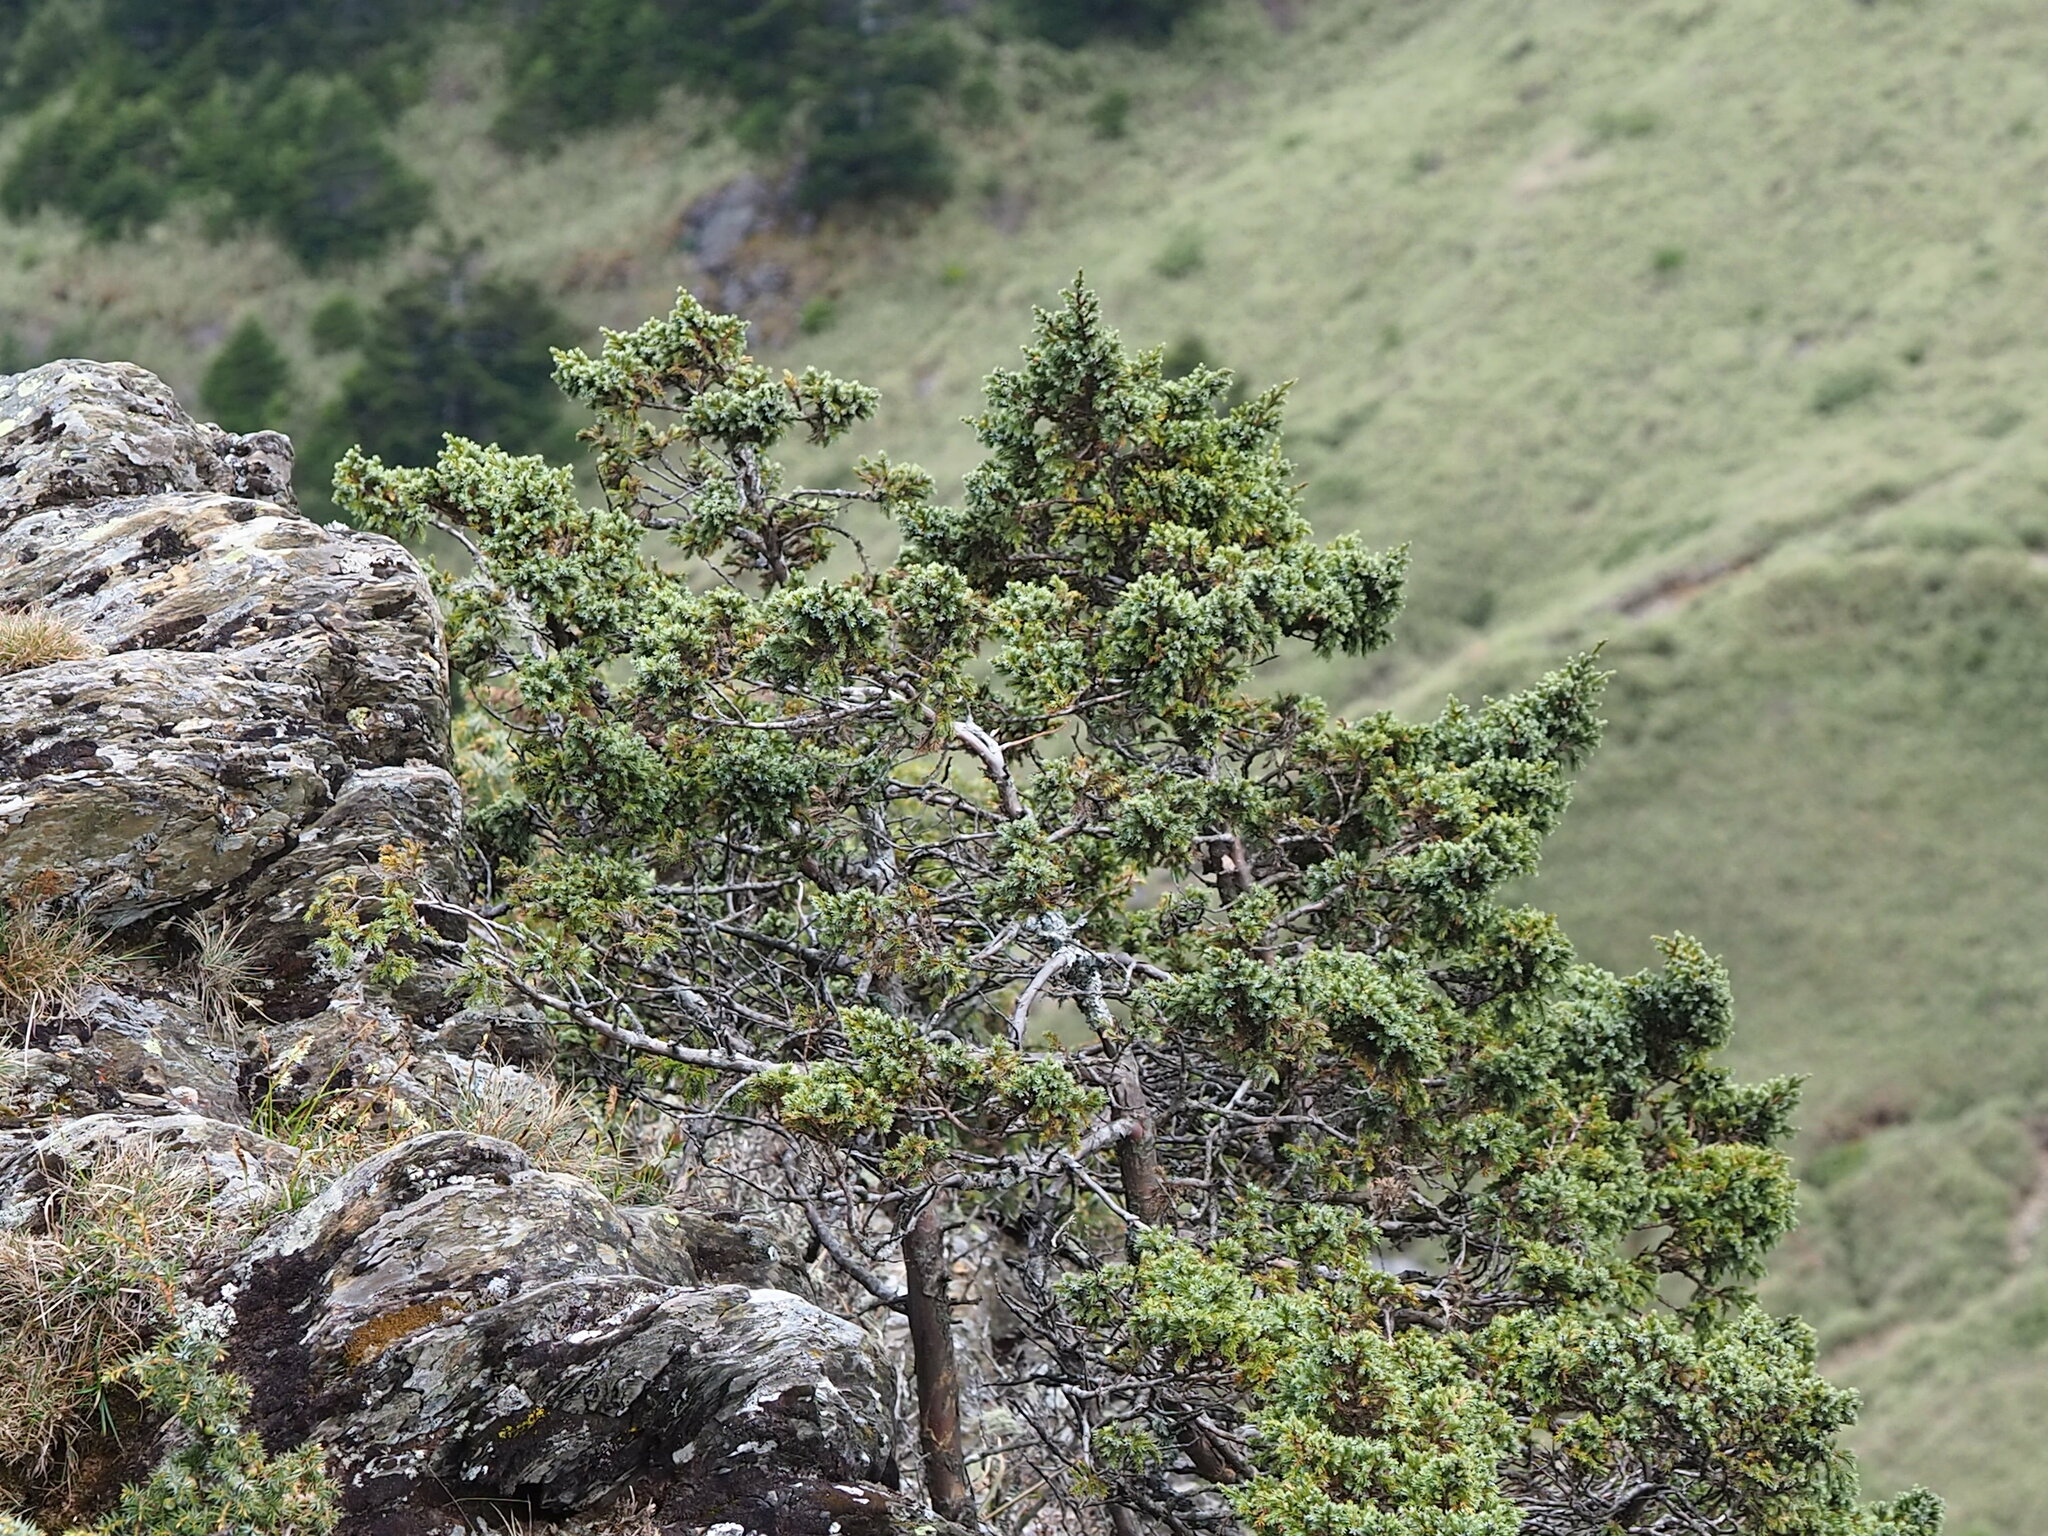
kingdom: Plantae
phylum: Tracheophyta
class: Pinopsida
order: Pinales
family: Cupressaceae
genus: Juniperus
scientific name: Juniperus squamata
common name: Flaky juniper
